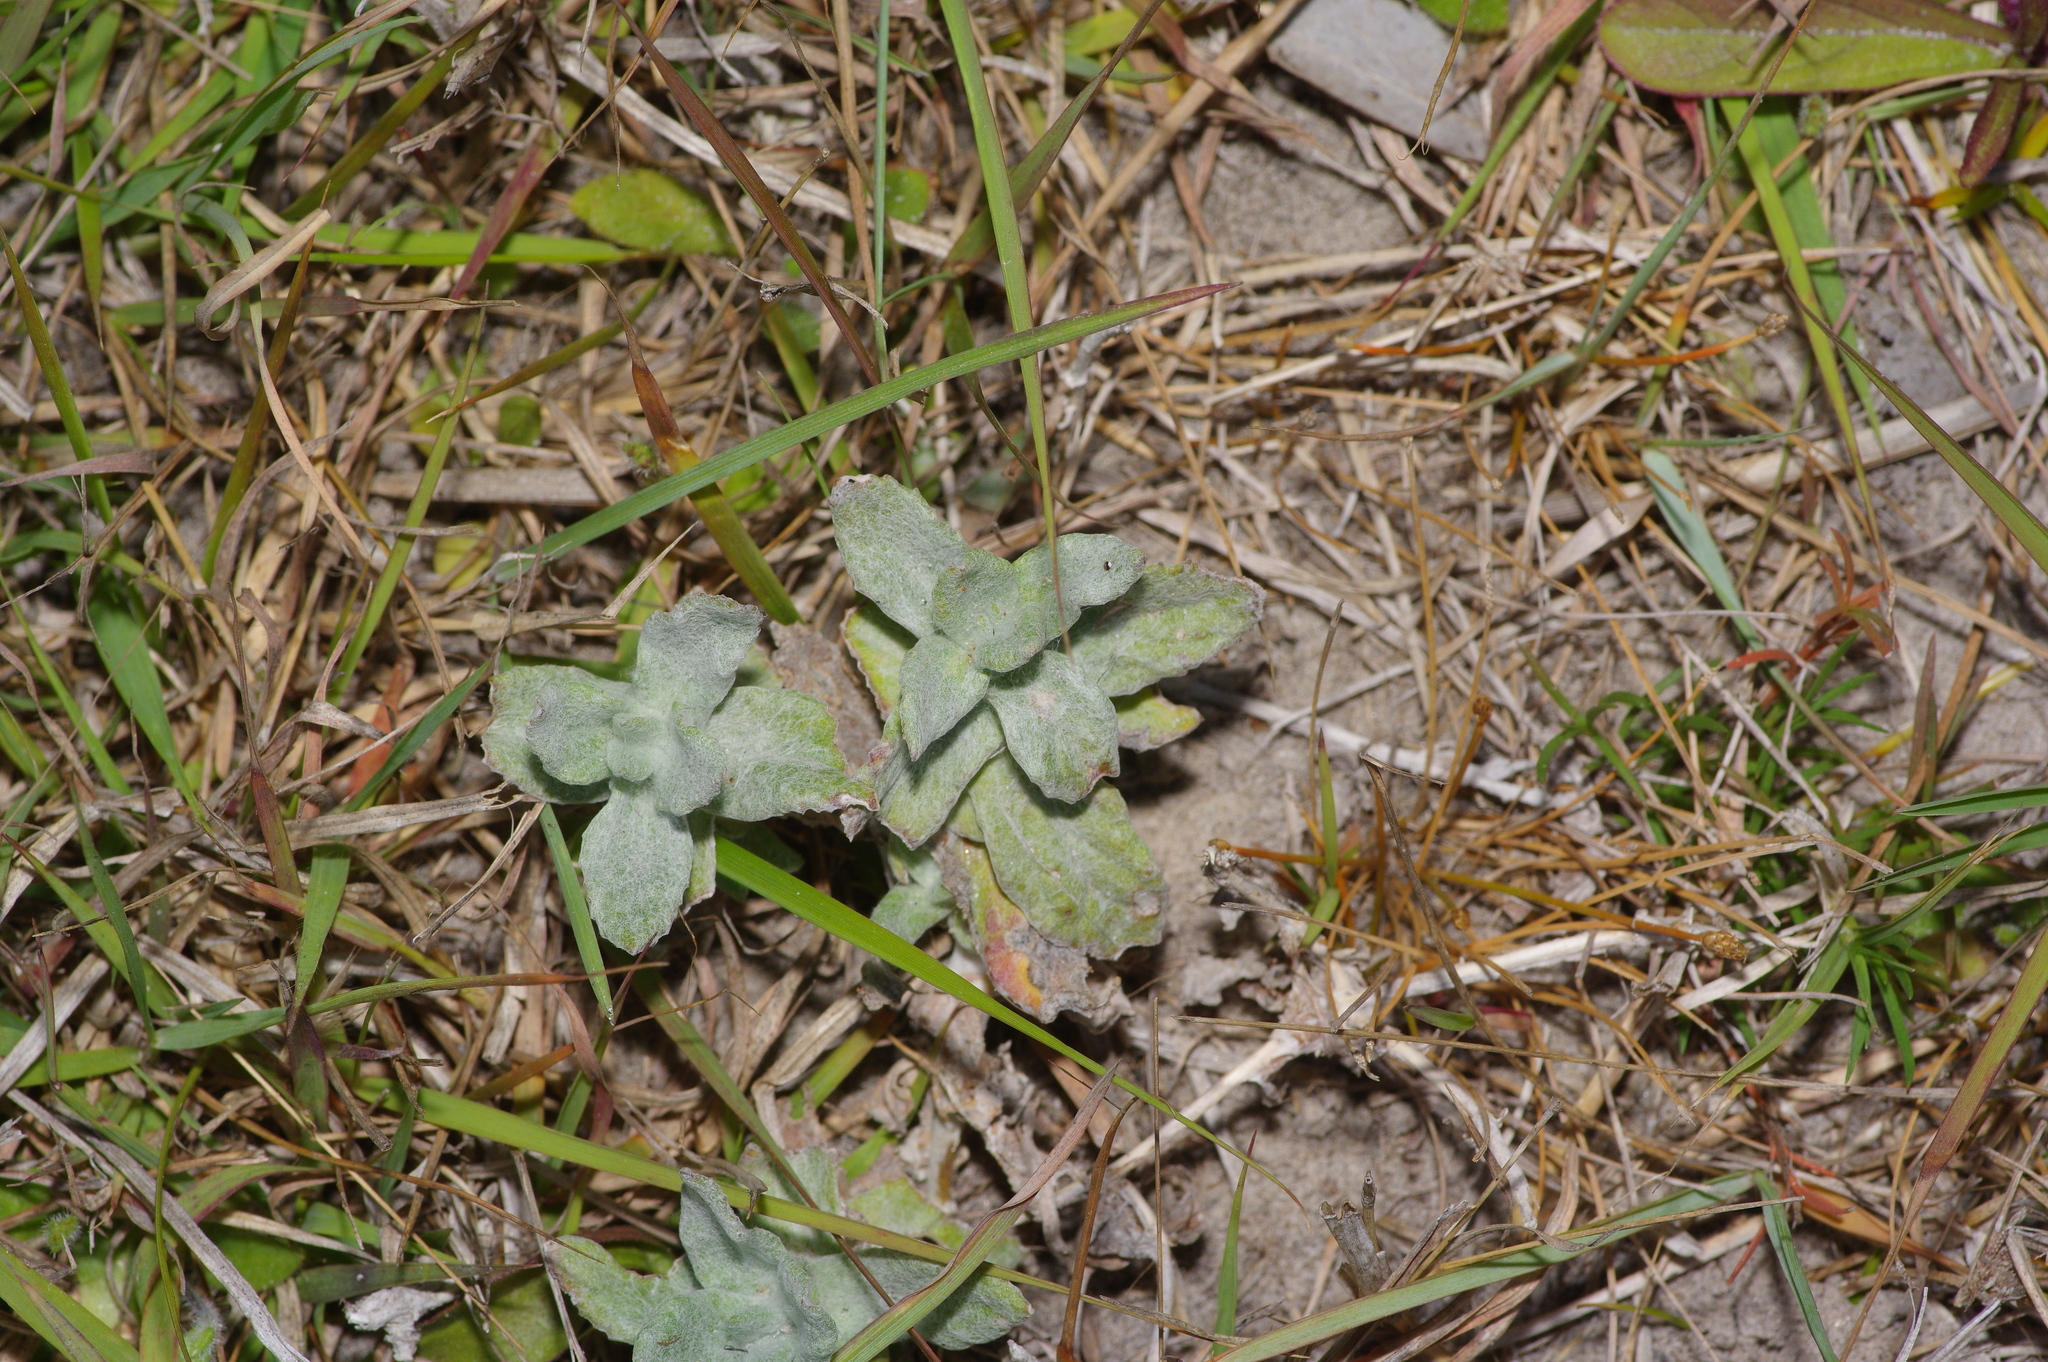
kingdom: Plantae
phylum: Tracheophyta
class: Magnoliopsida
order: Lamiales
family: Plantaginaceae
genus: Stemodia
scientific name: Stemodia lanata
